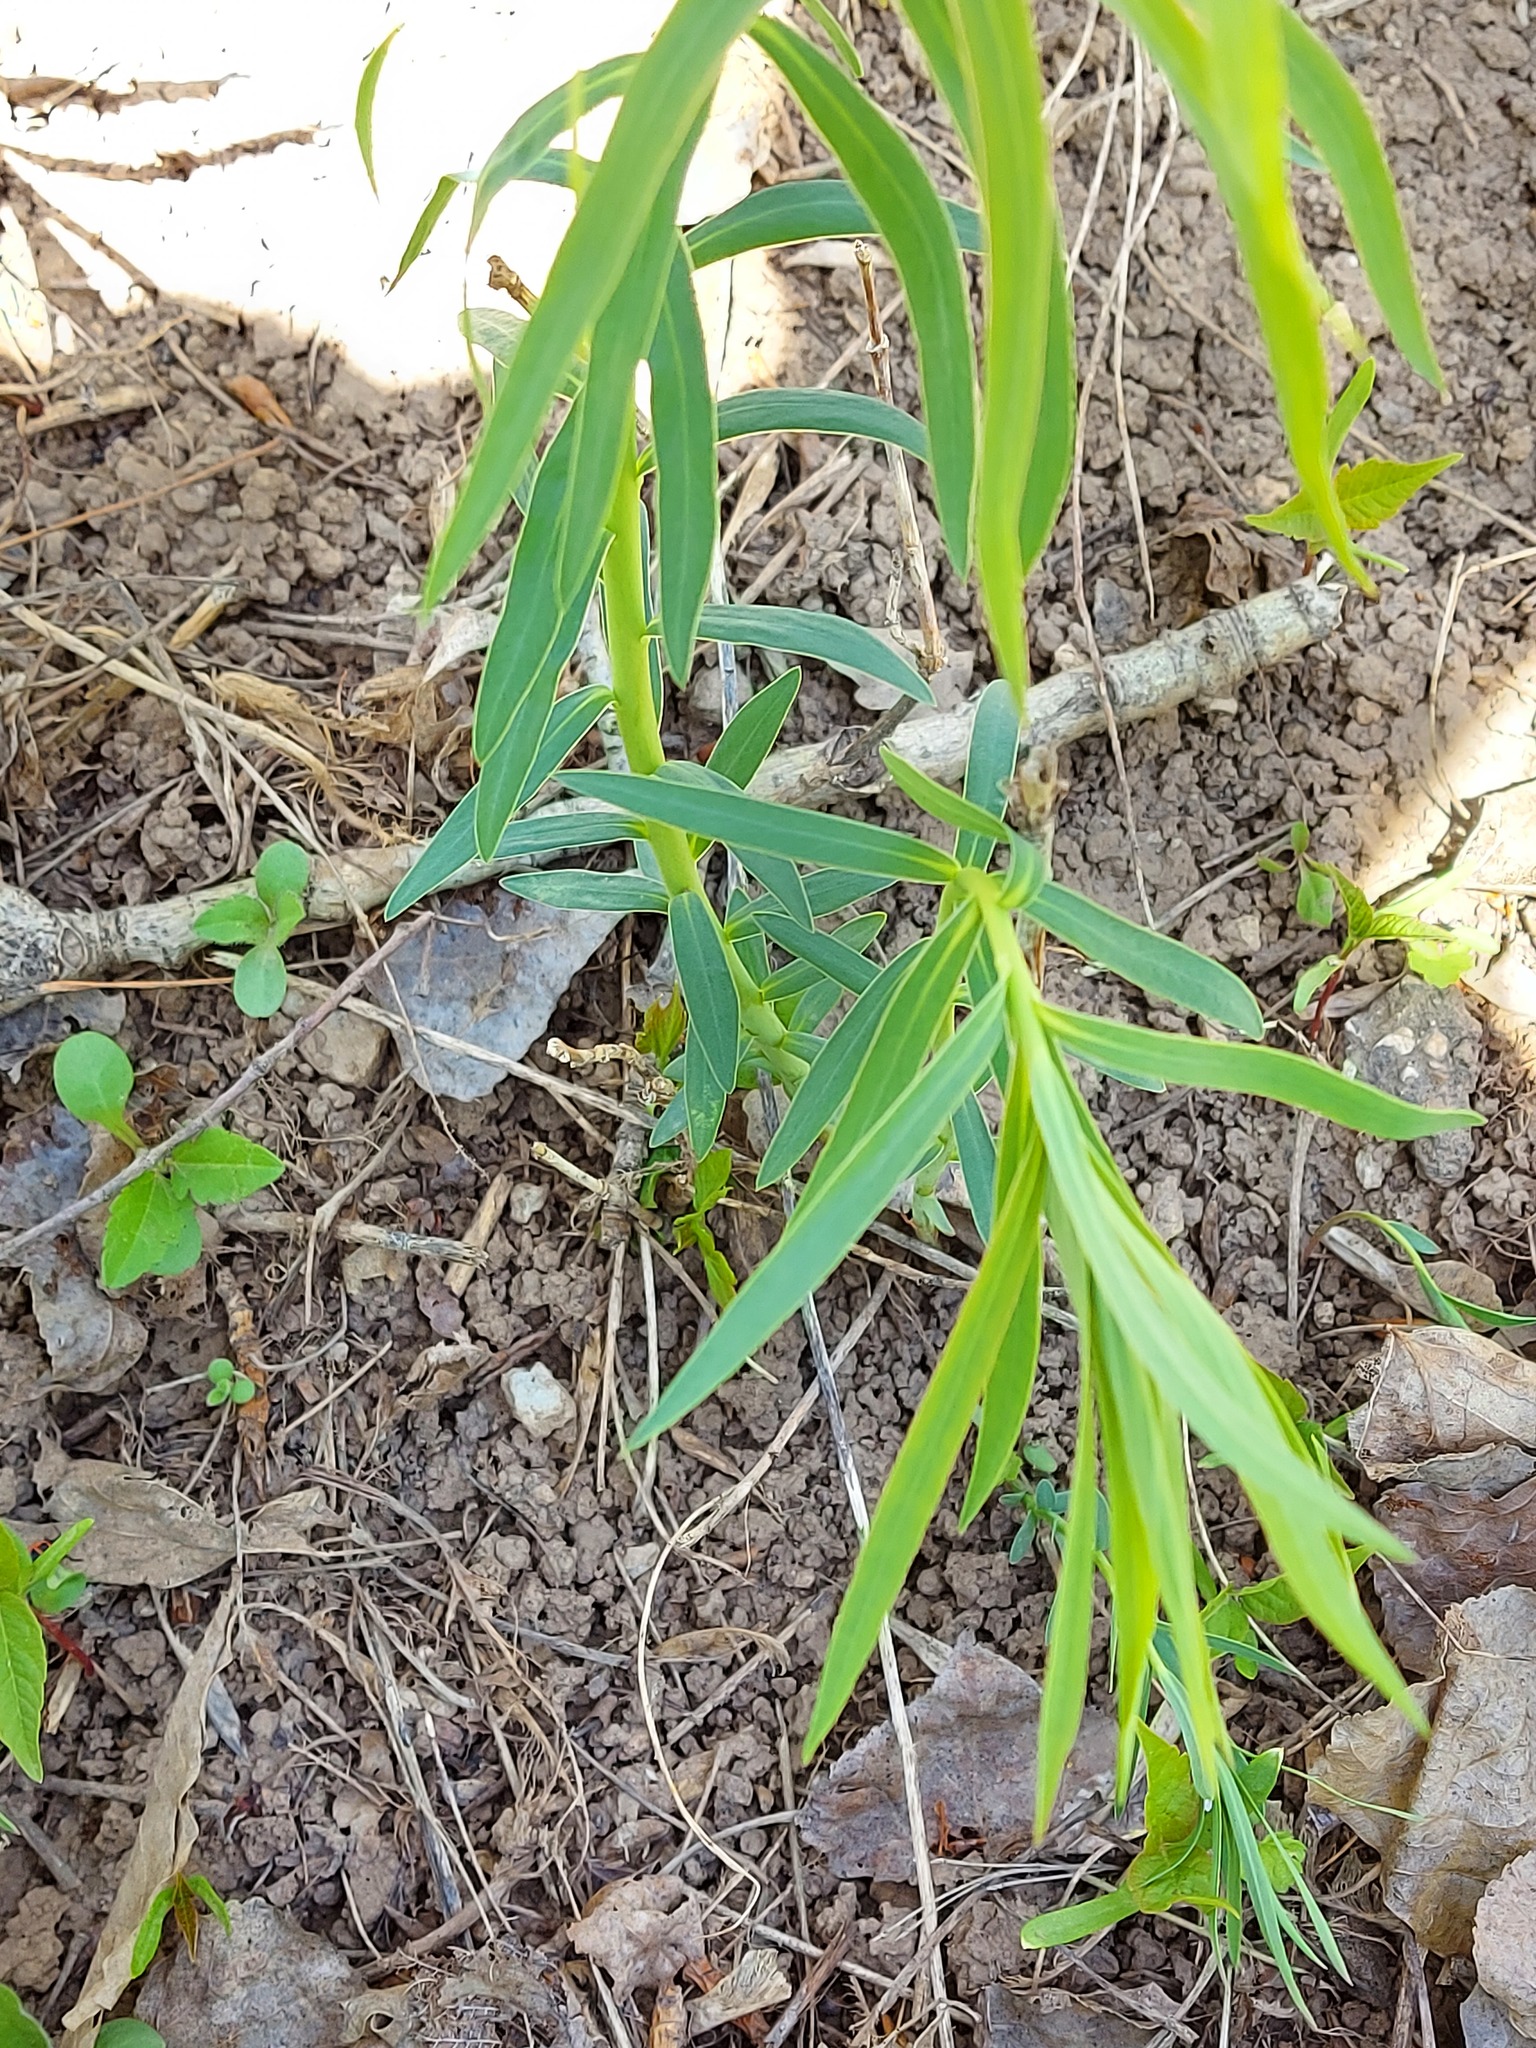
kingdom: Plantae
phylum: Tracheophyta
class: Magnoliopsida
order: Malpighiales
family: Euphorbiaceae
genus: Euphorbia
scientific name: Euphorbia virgata
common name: Leafy spurge
